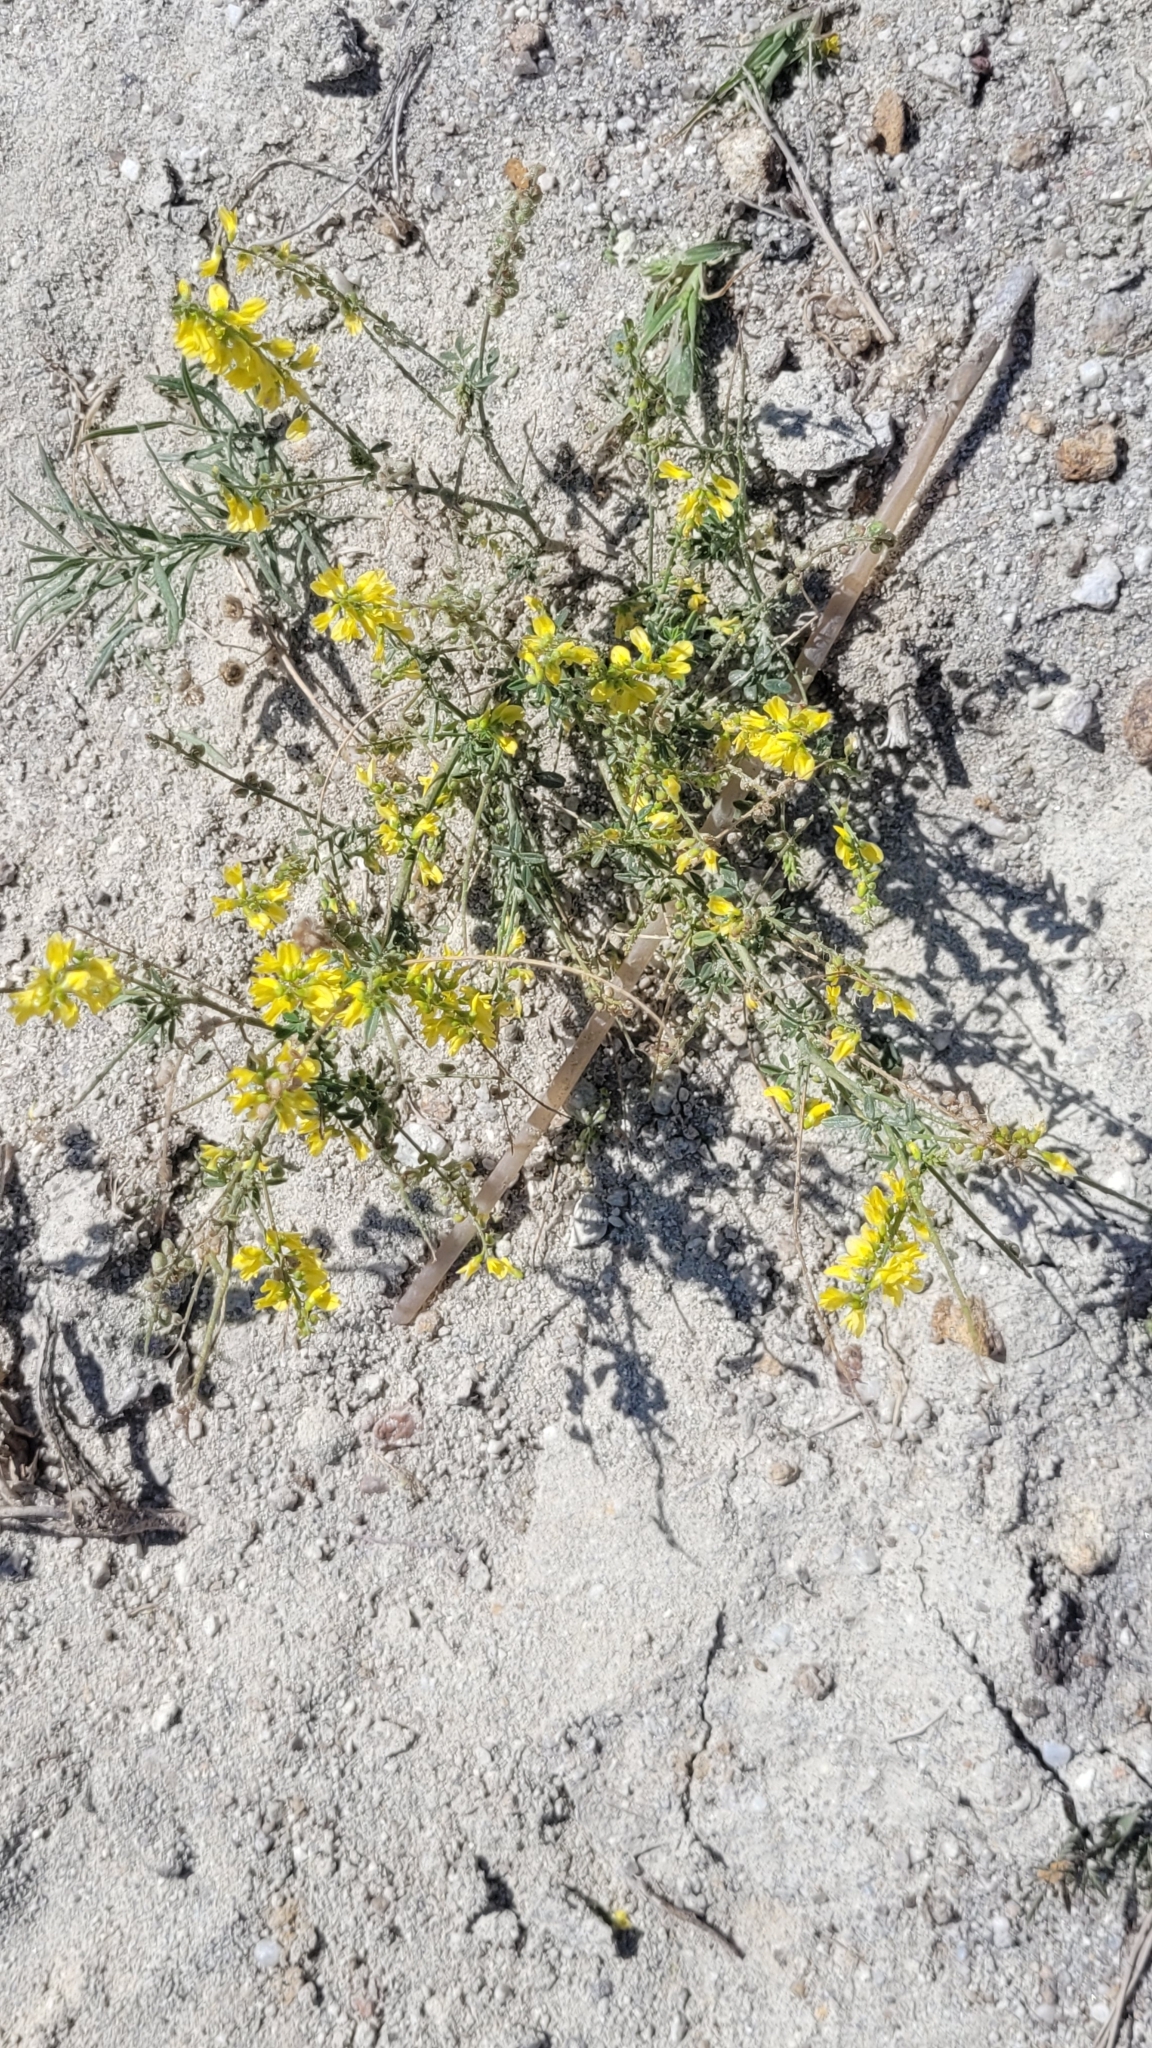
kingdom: Plantae
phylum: Tracheophyta
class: Magnoliopsida
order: Fabales
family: Fabaceae
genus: Melilotus
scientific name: Melilotus officinalis
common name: Sweetclover
